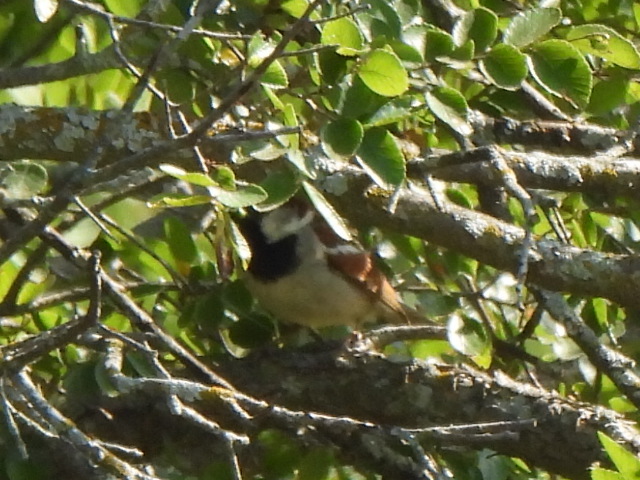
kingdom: Animalia
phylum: Chordata
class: Aves
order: Passeriformes
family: Passeridae
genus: Passer
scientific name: Passer domesticus
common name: House sparrow
